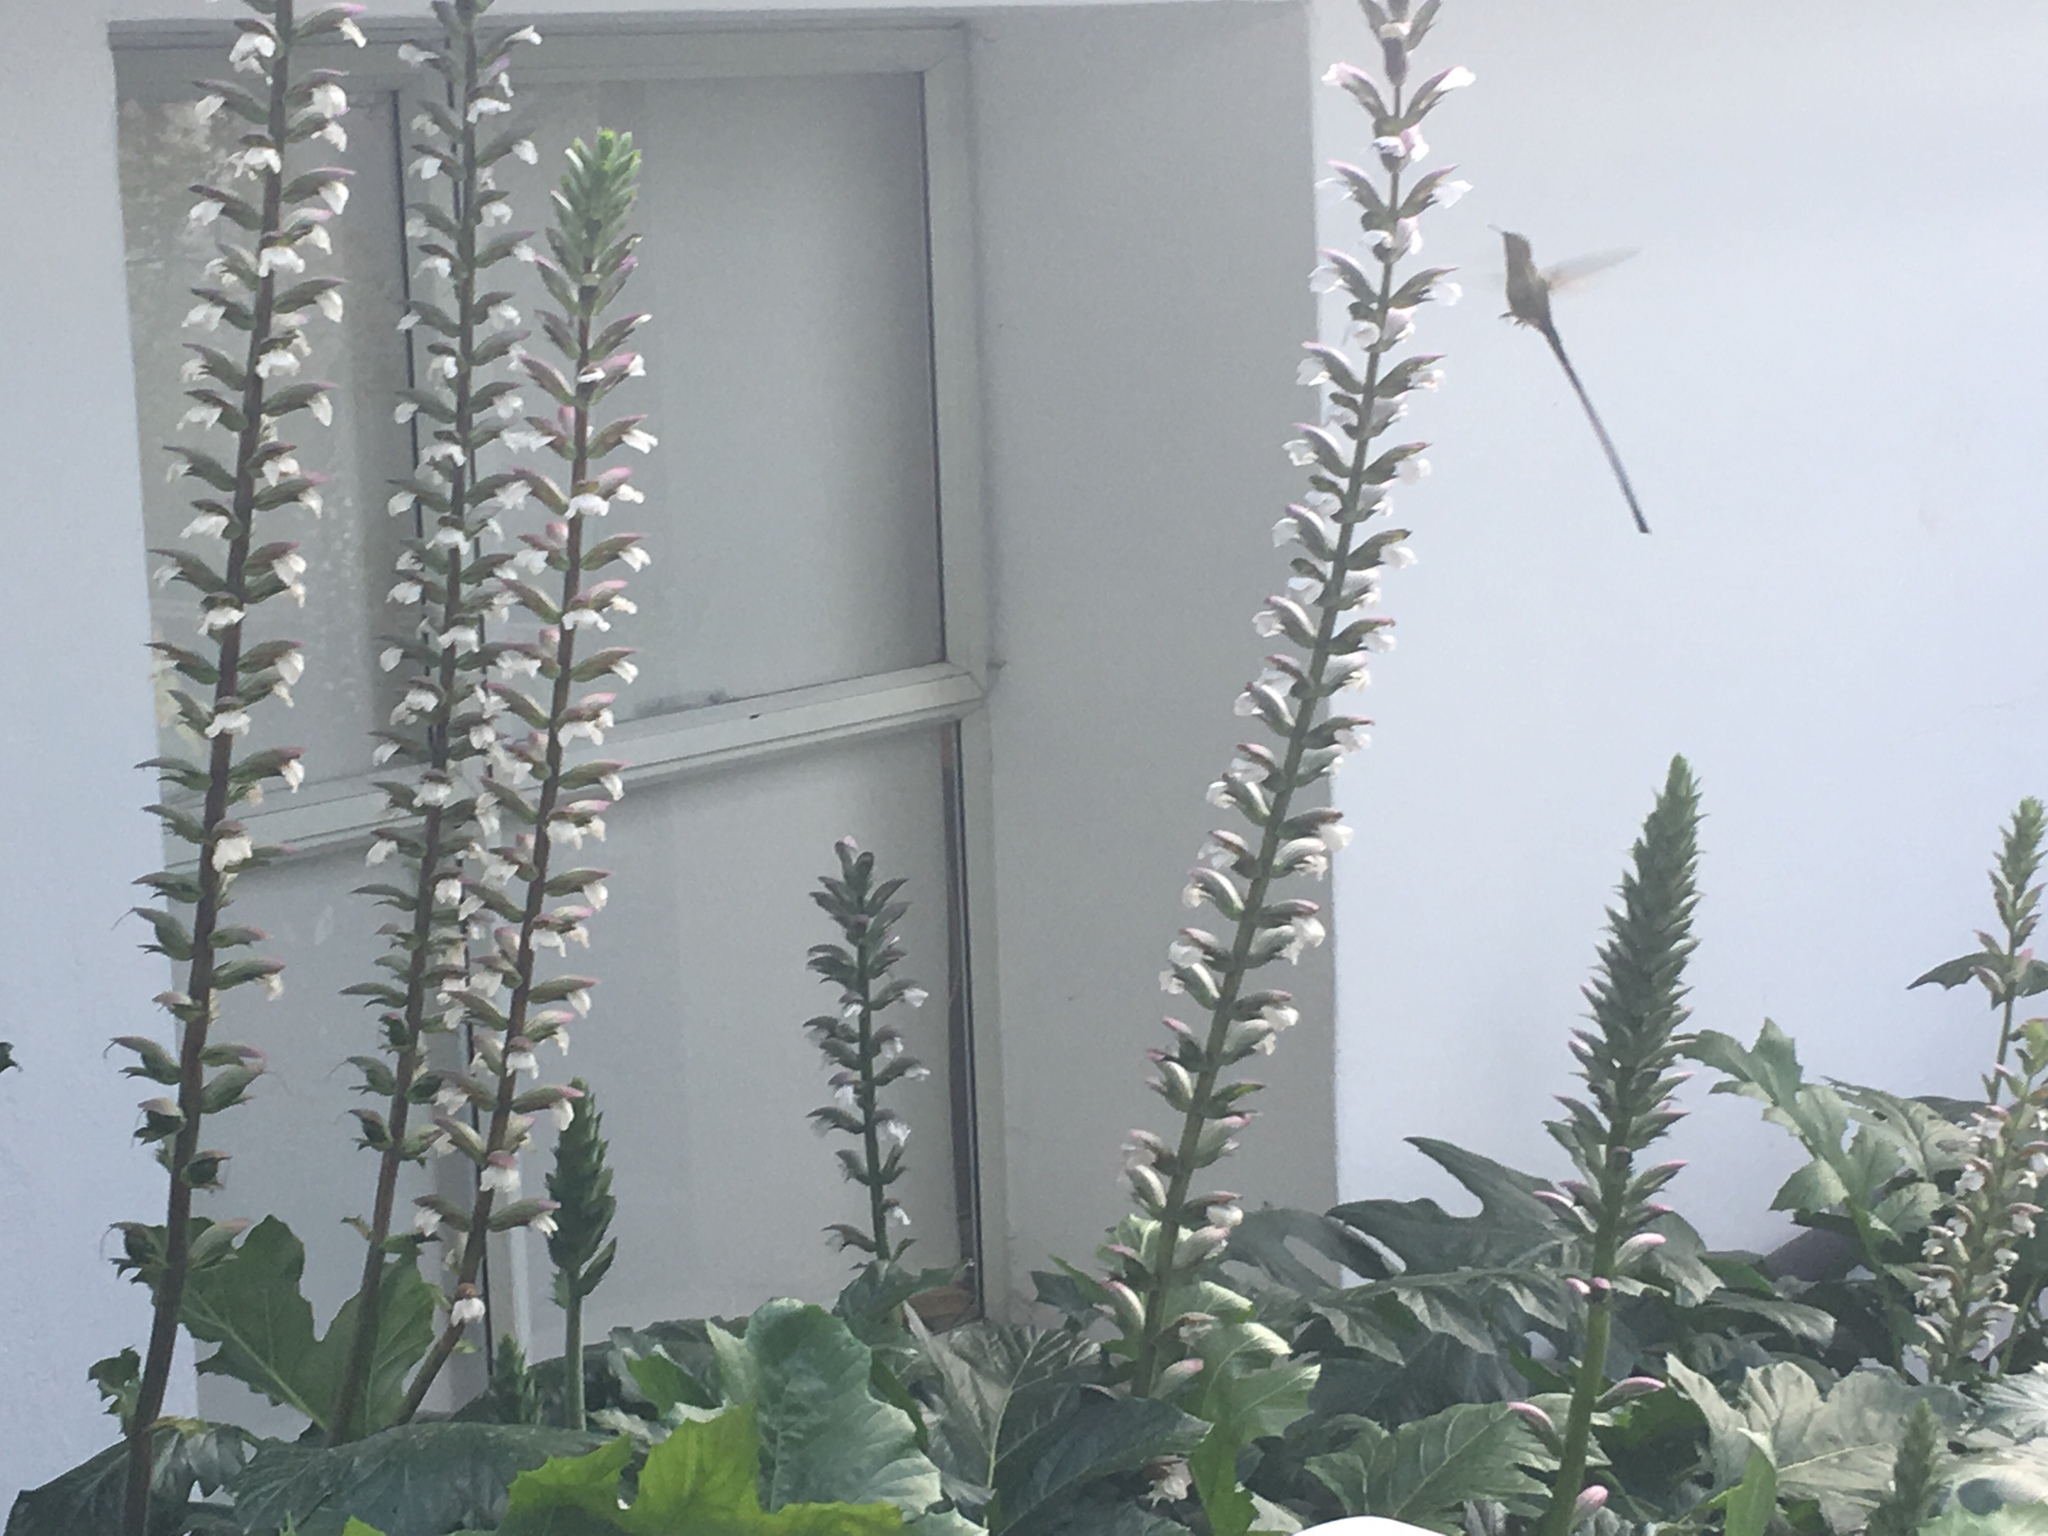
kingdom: Animalia
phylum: Chordata
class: Aves
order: Apodiformes
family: Trochilidae
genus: Lesbia
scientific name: Lesbia nuna
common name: Green-tailed trainbearer
